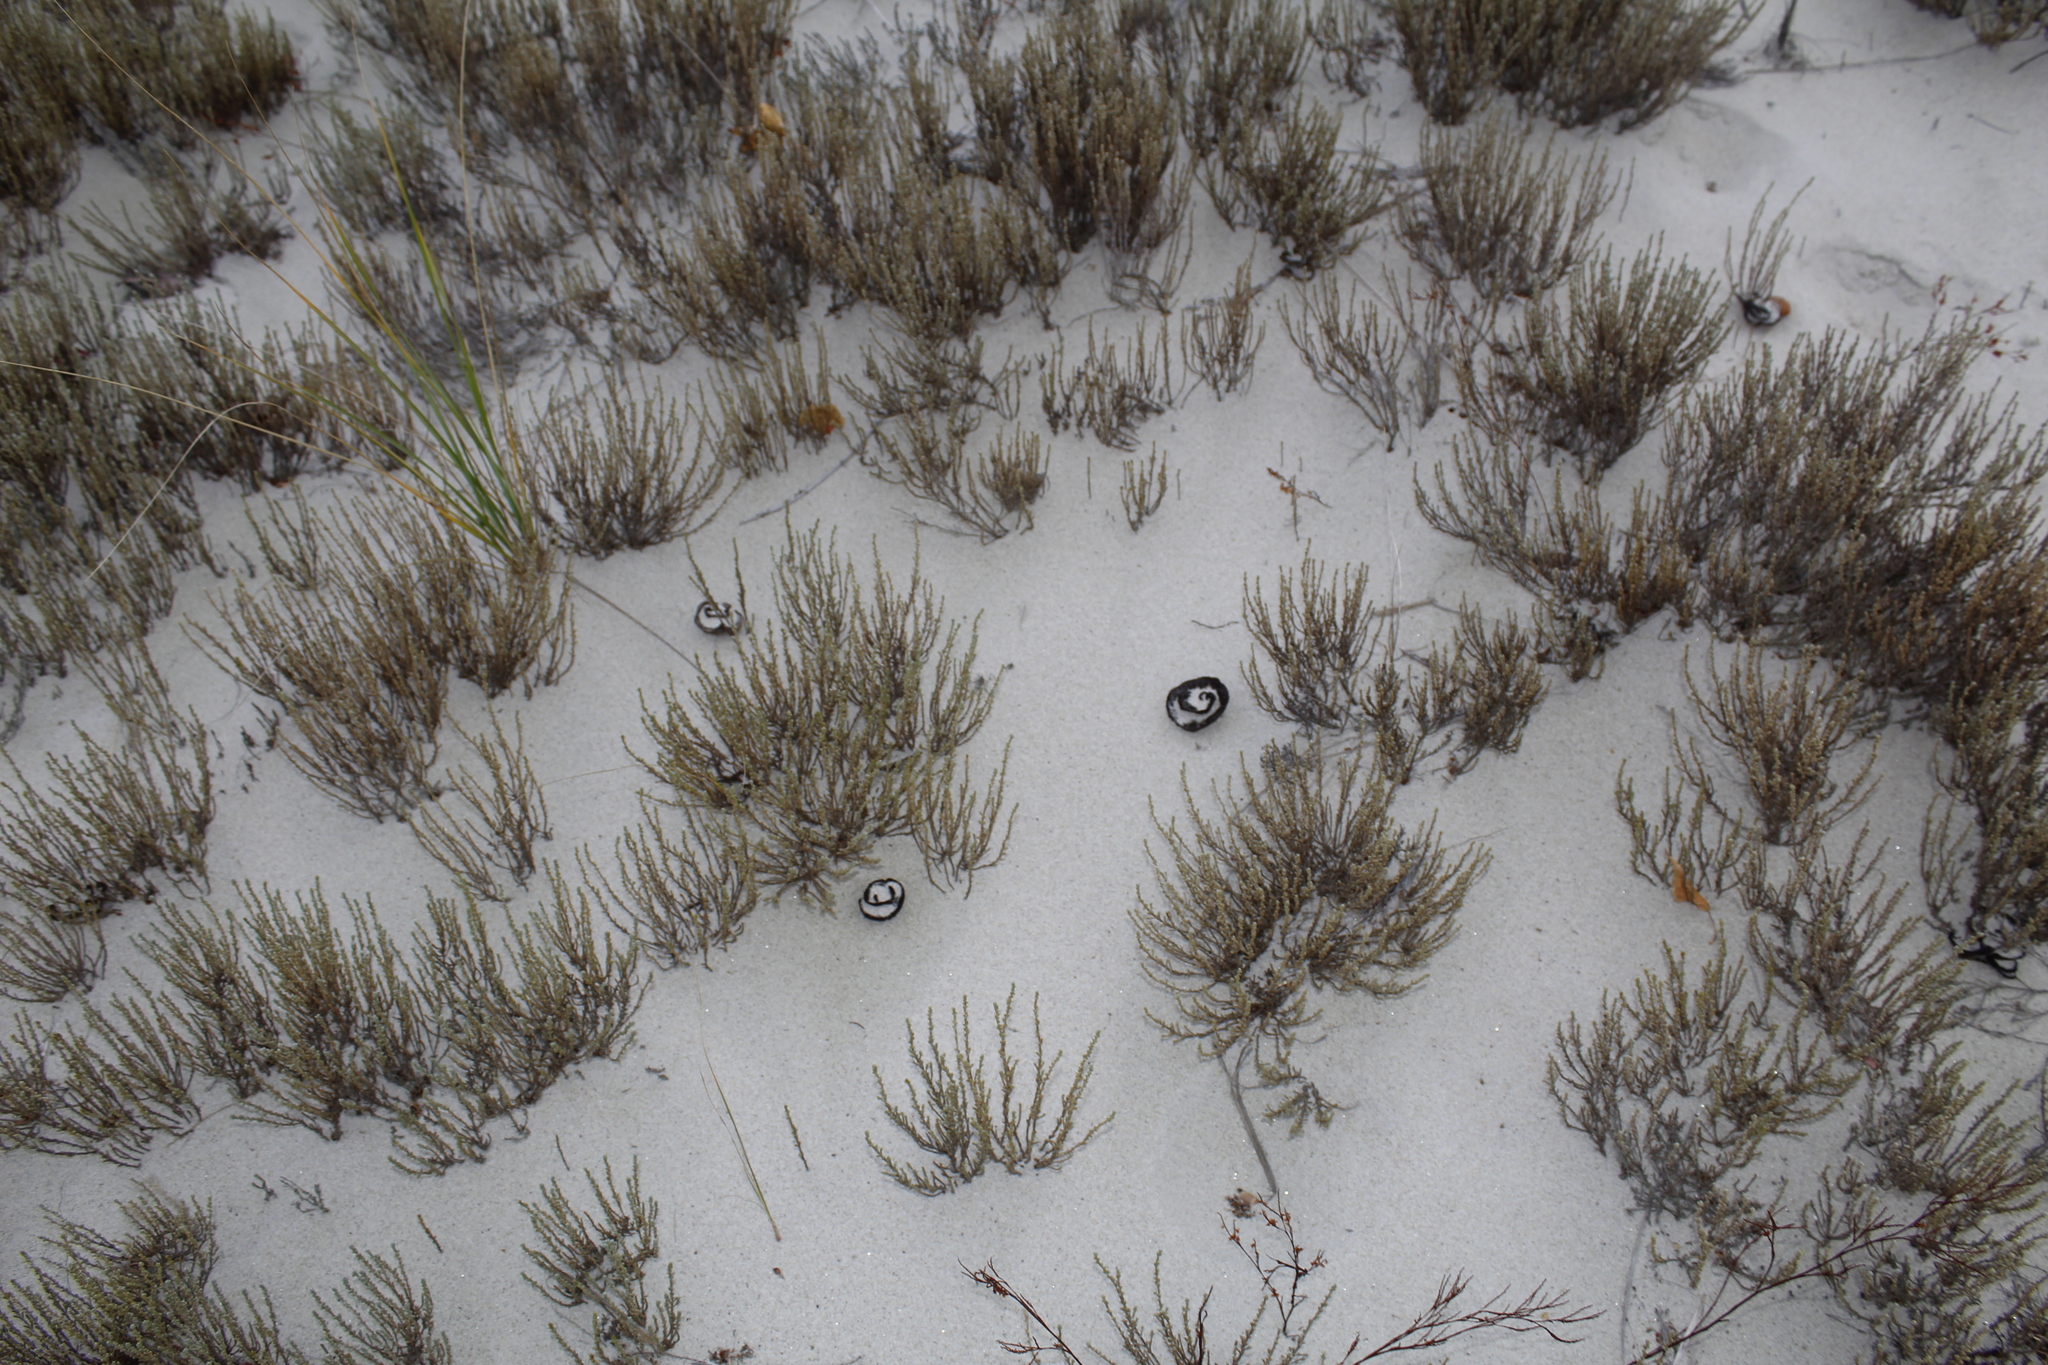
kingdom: Plantae
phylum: Tracheophyta
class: Magnoliopsida
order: Malvales
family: Cistaceae
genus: Hudsonia
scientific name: Hudsonia tomentosa
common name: Beach-heath
